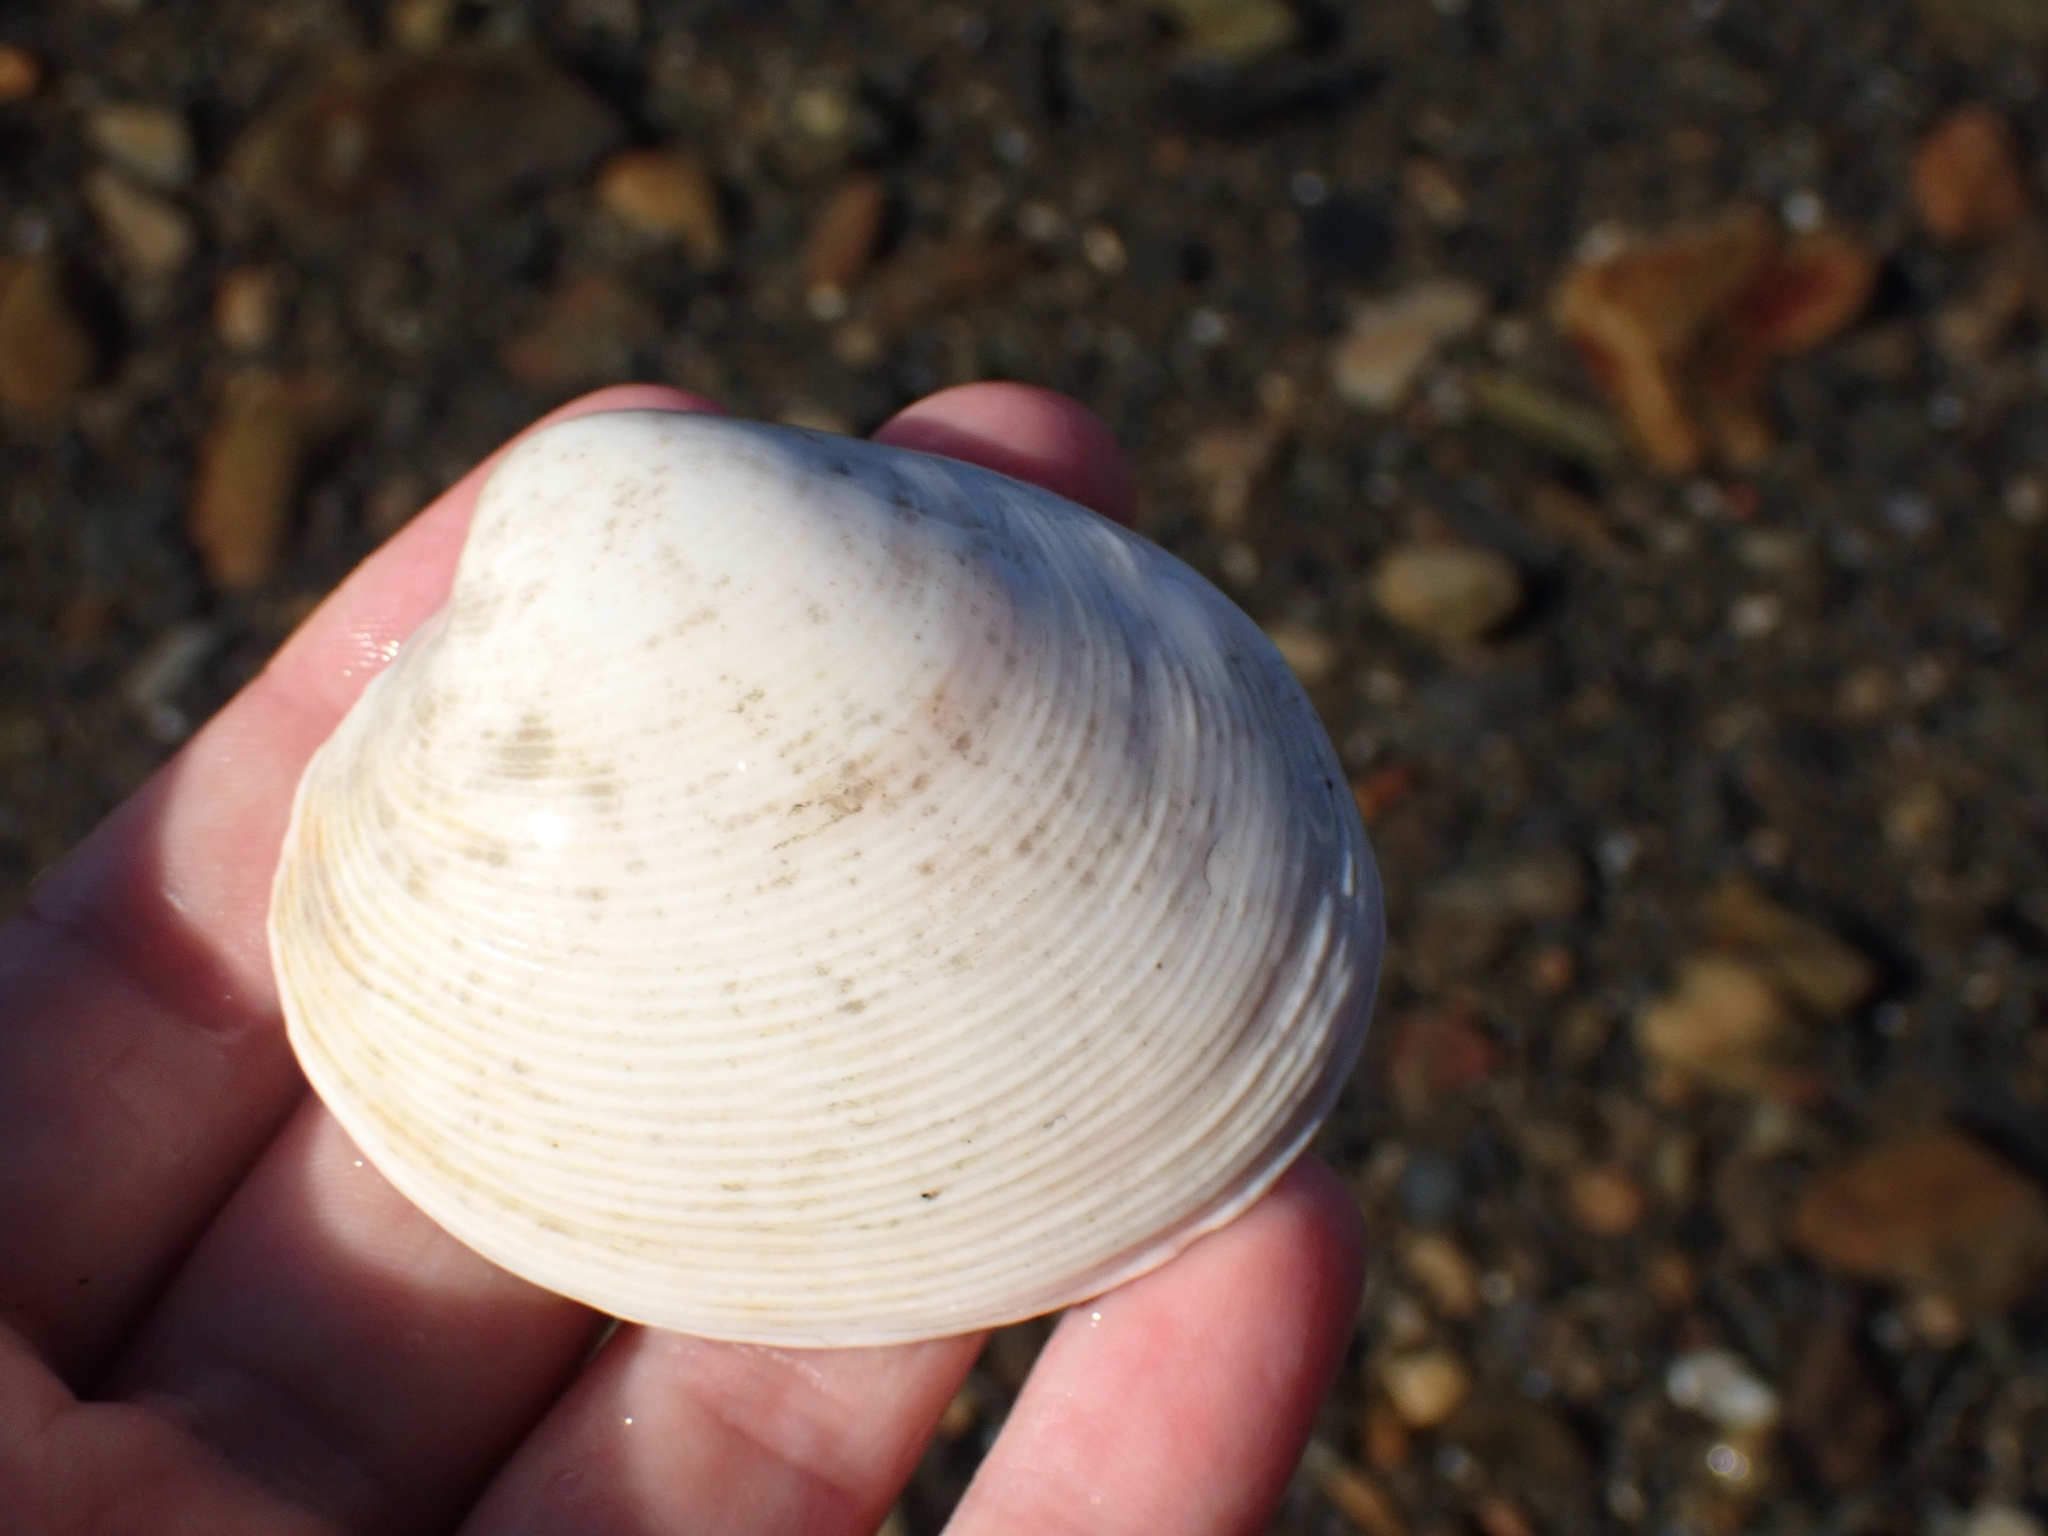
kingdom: Animalia
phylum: Mollusca
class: Bivalvia
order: Venerida
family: Veneridae
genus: Dosina
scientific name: Dosina mactracea
